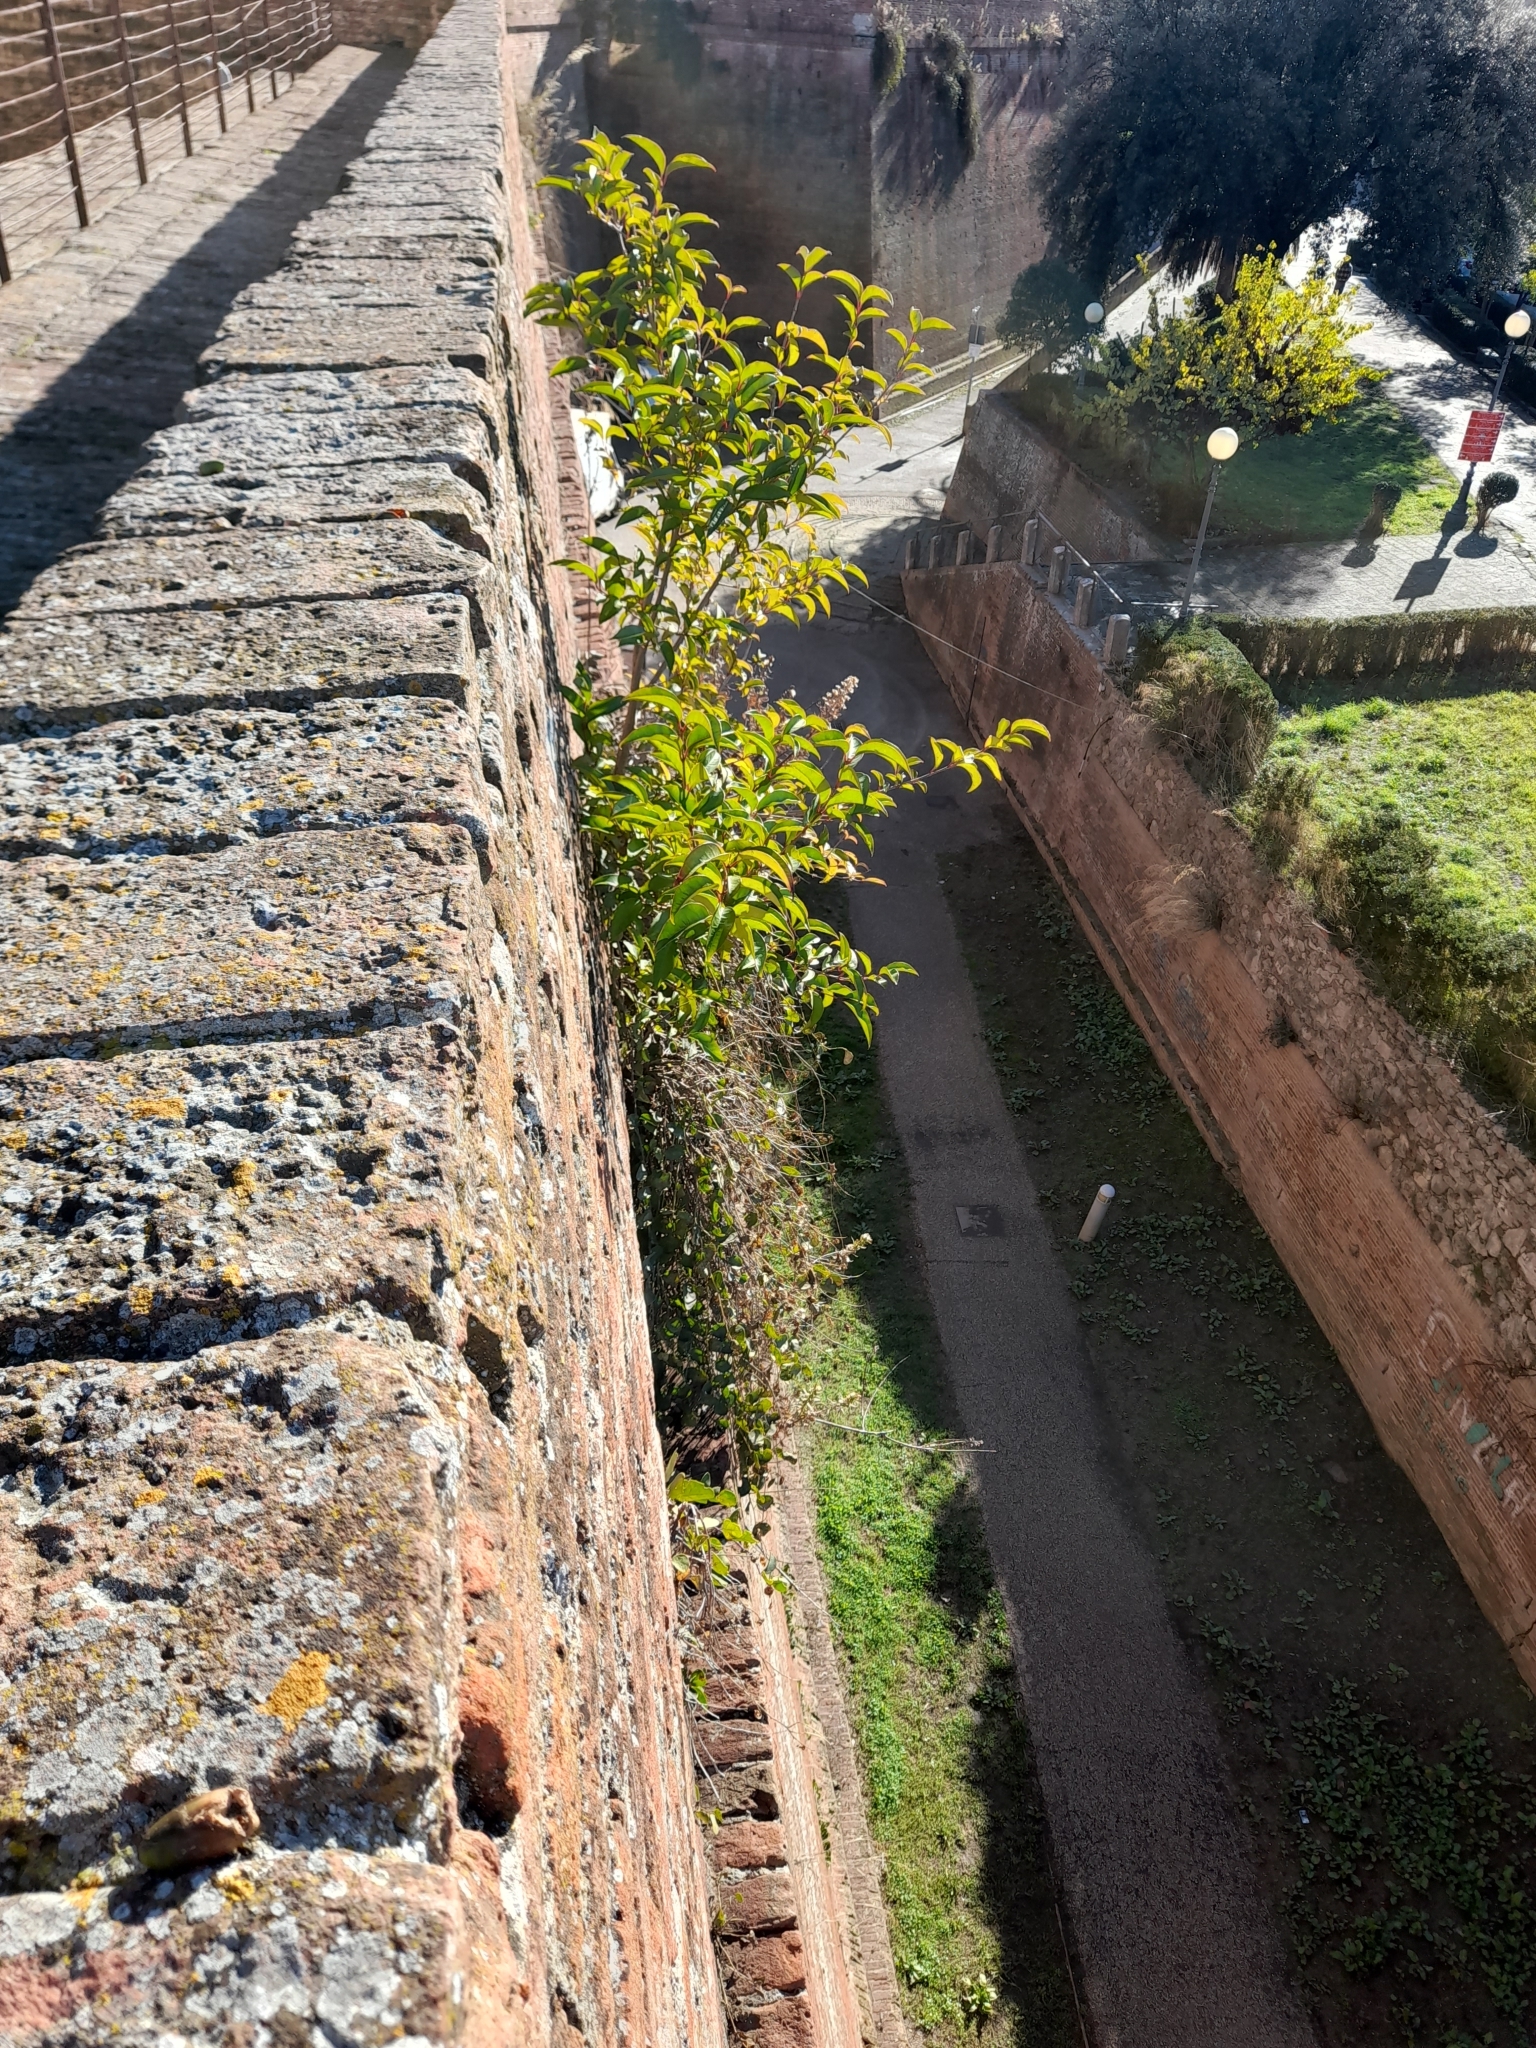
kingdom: Plantae
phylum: Tracheophyta
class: Magnoliopsida
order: Lamiales
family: Oleaceae
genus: Ligustrum
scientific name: Ligustrum lucidum
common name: Glossy privet
